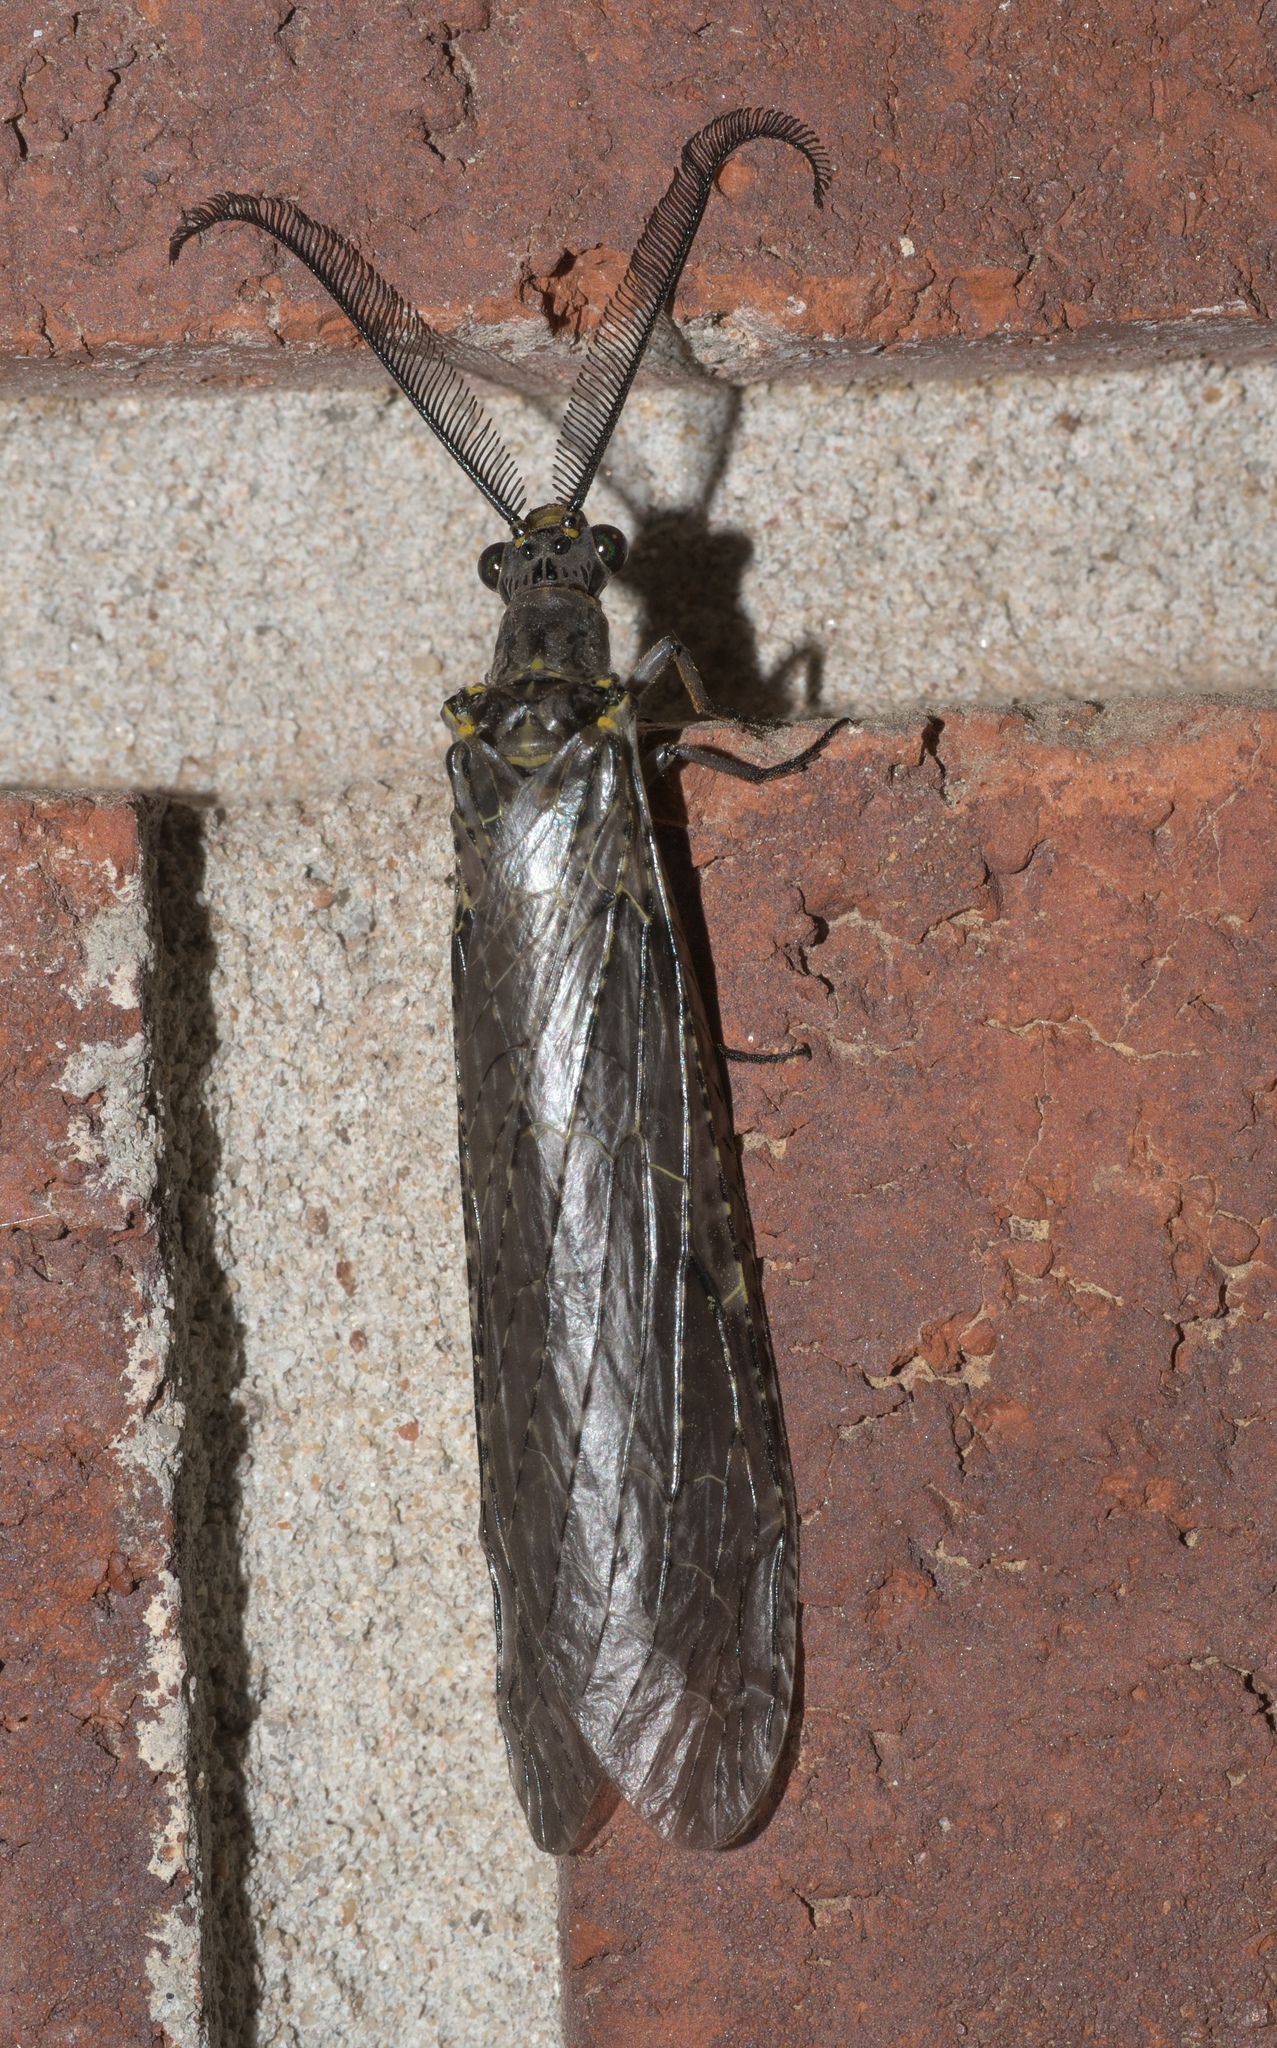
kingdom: Animalia
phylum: Arthropoda
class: Insecta
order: Megaloptera
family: Corydalidae
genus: Chauliodes
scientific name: Chauliodes rastricornis
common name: Spring fishfly
